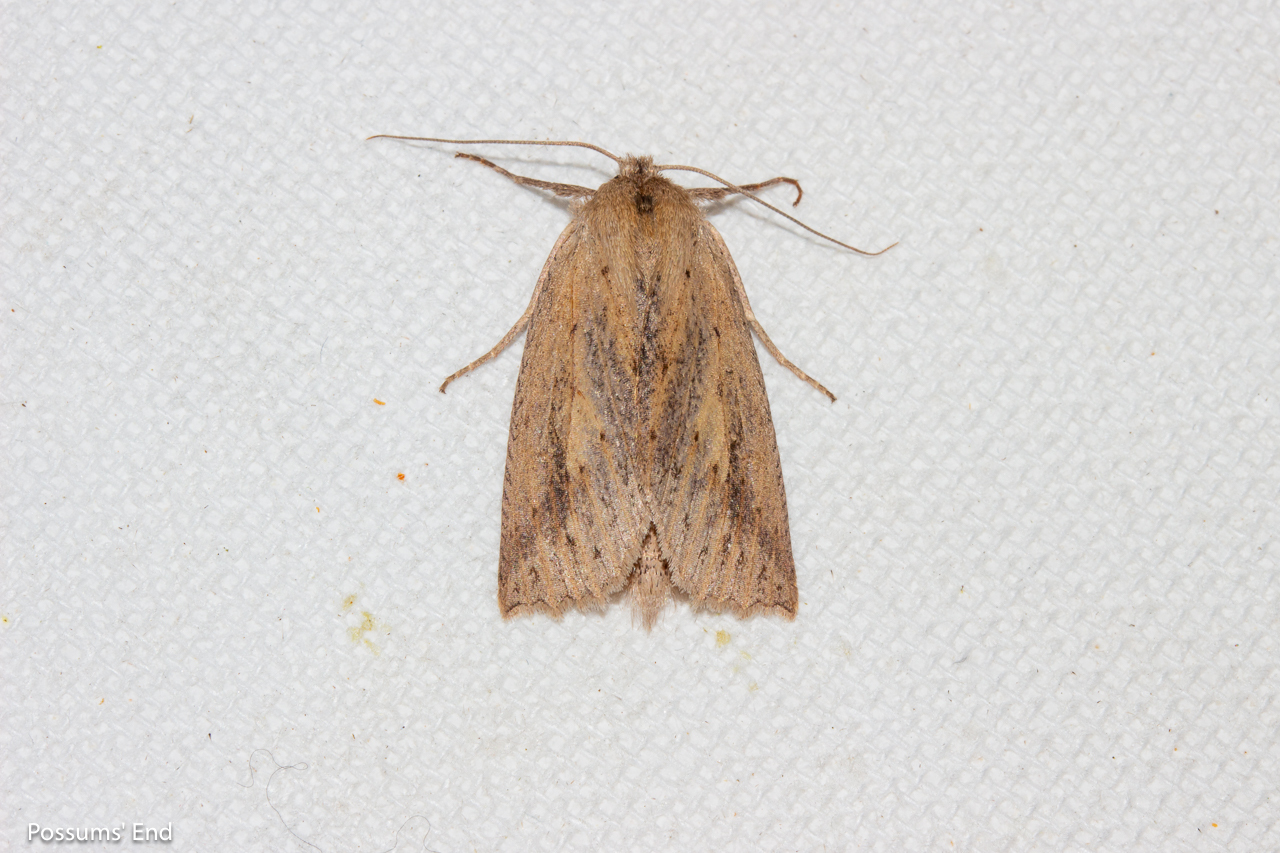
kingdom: Animalia
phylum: Arthropoda
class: Insecta
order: Lepidoptera
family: Geometridae
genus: Declana
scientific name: Declana leptomera
